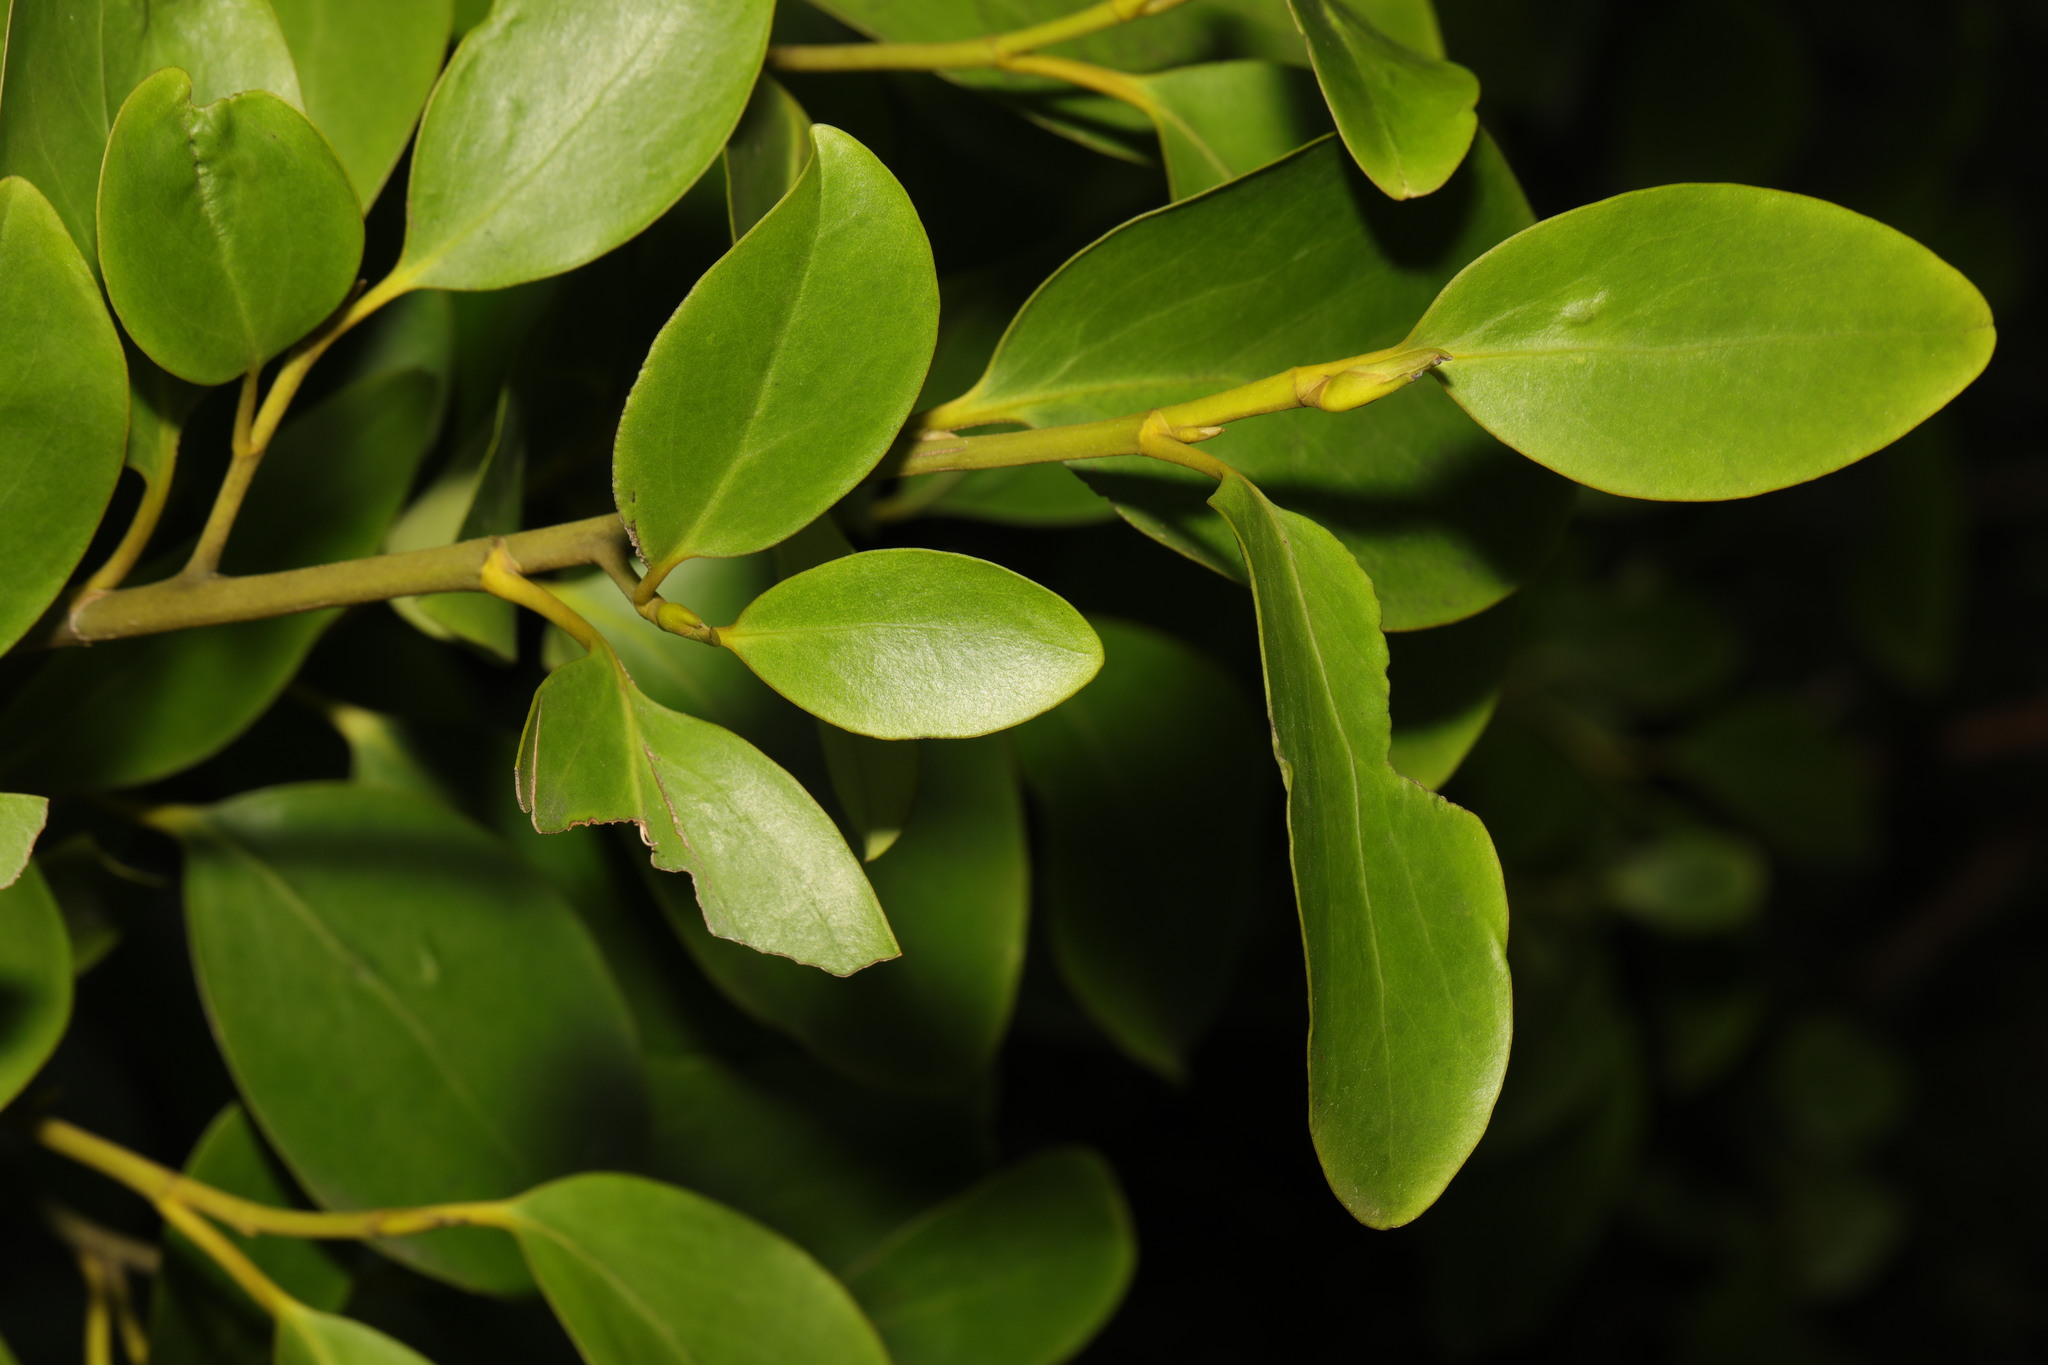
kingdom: Plantae
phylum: Tracheophyta
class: Magnoliopsida
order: Apiales
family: Griseliniaceae
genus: Griselinia
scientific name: Griselinia littoralis
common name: New zealand broadleaf
